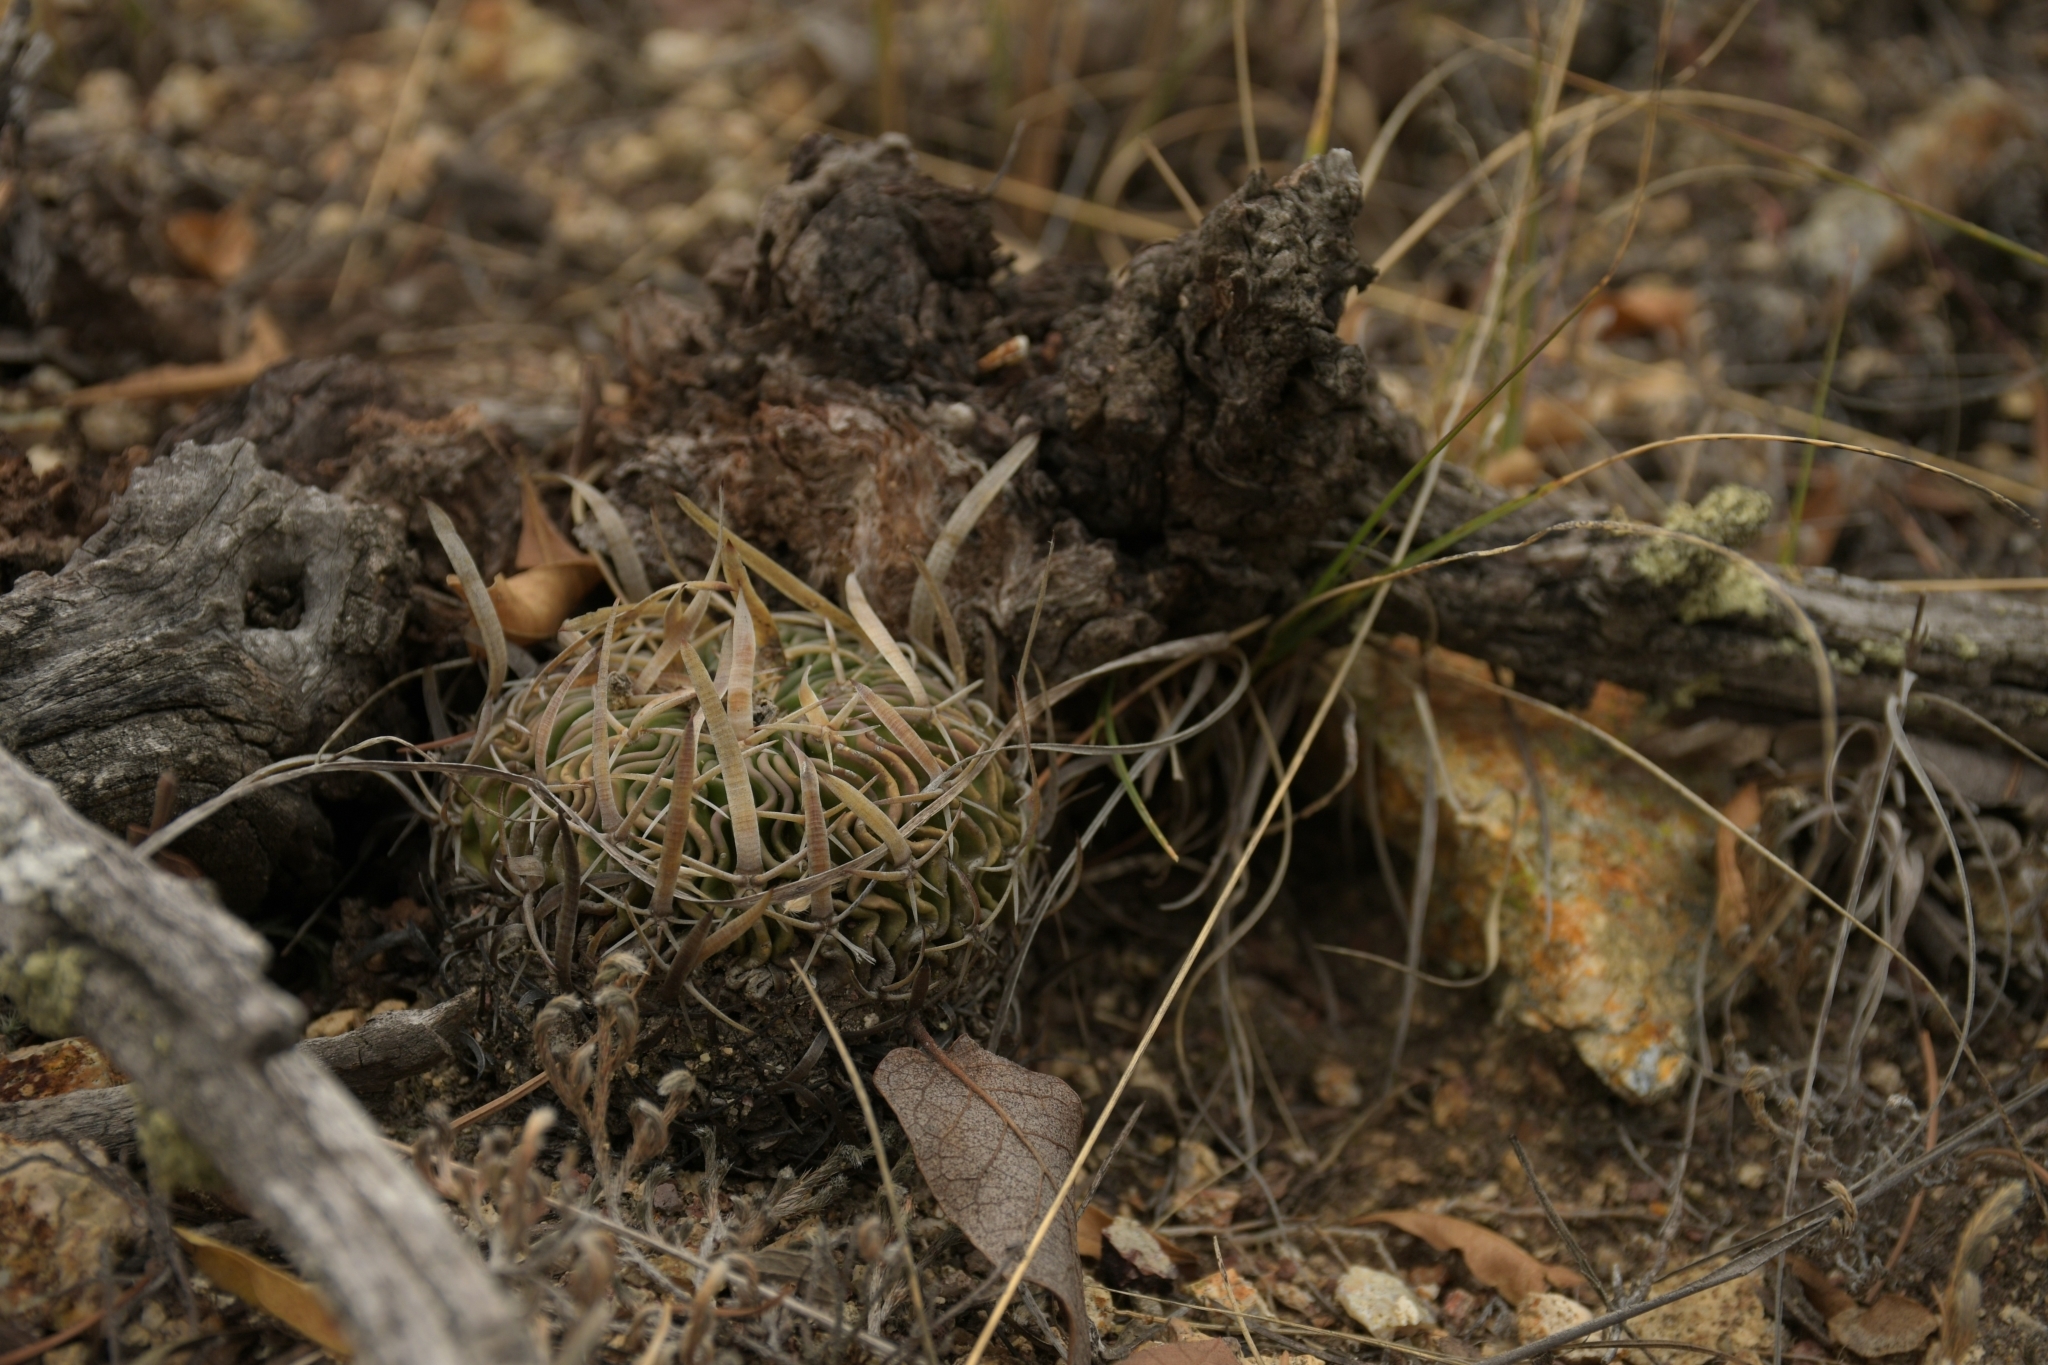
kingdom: Plantae
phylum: Tracheophyta
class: Magnoliopsida
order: Caryophyllales
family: Cactaceae
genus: Stenocactus
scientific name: Stenocactus phyllacanthus
